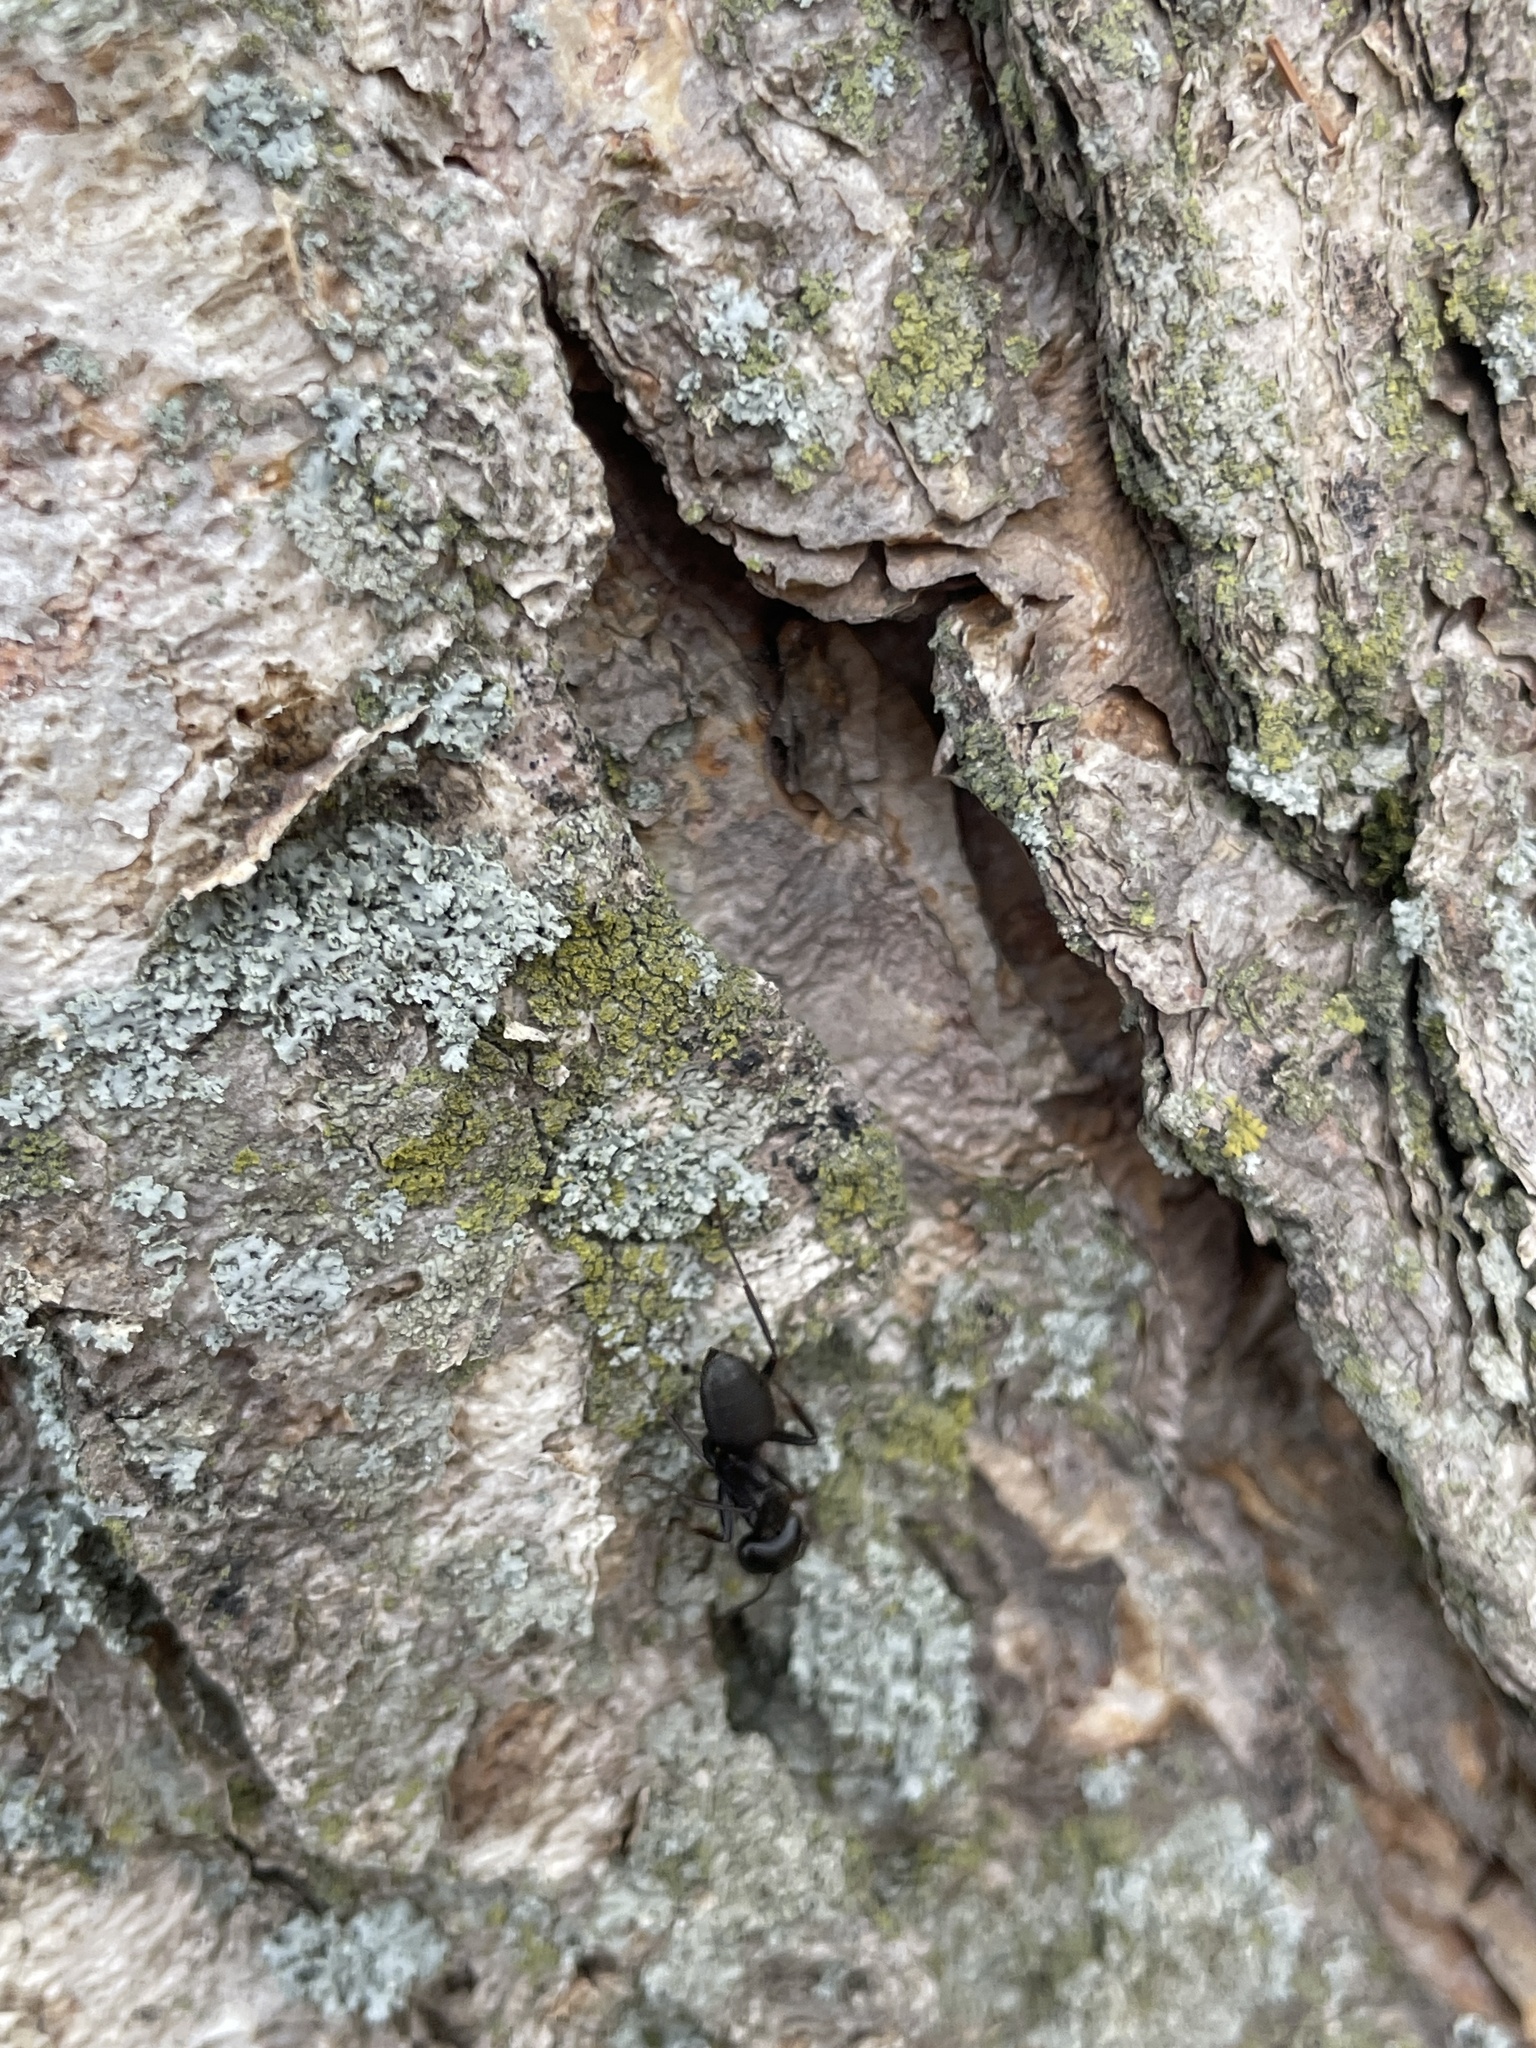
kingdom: Animalia
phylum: Arthropoda
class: Insecta
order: Hymenoptera
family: Formicidae
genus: Camponotus
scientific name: Camponotus pennsylvanicus
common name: Black carpenter ant
